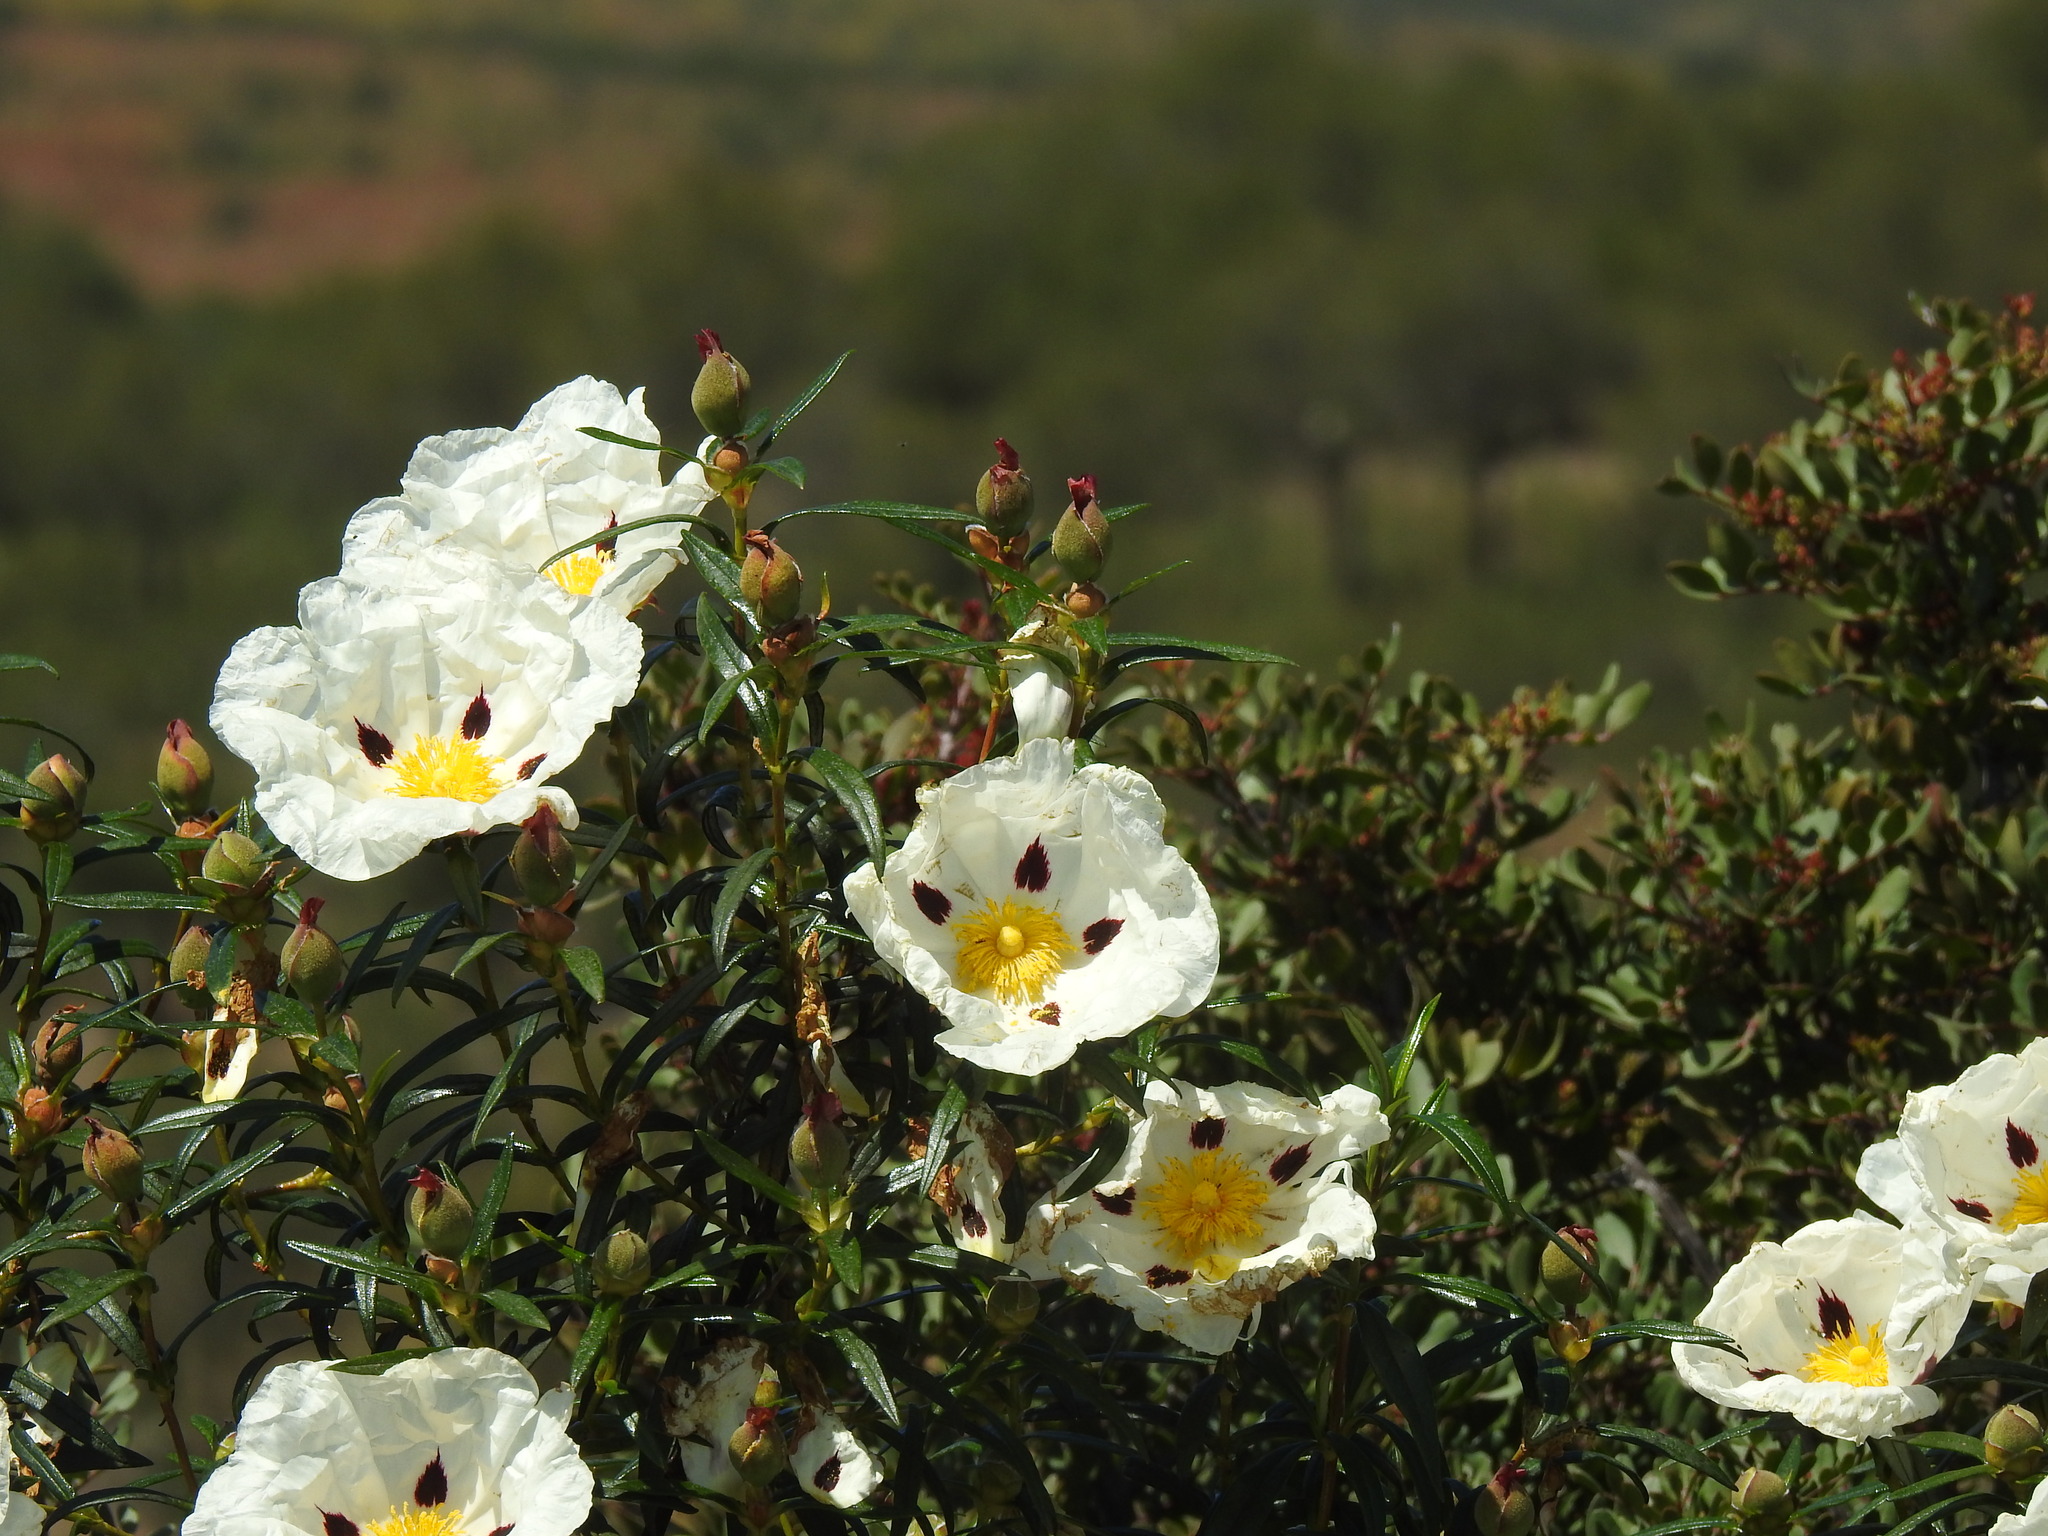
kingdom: Plantae
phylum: Tracheophyta
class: Magnoliopsida
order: Malvales
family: Cistaceae
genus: Cistus
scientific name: Cistus ladanifer
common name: Common gum cistus
